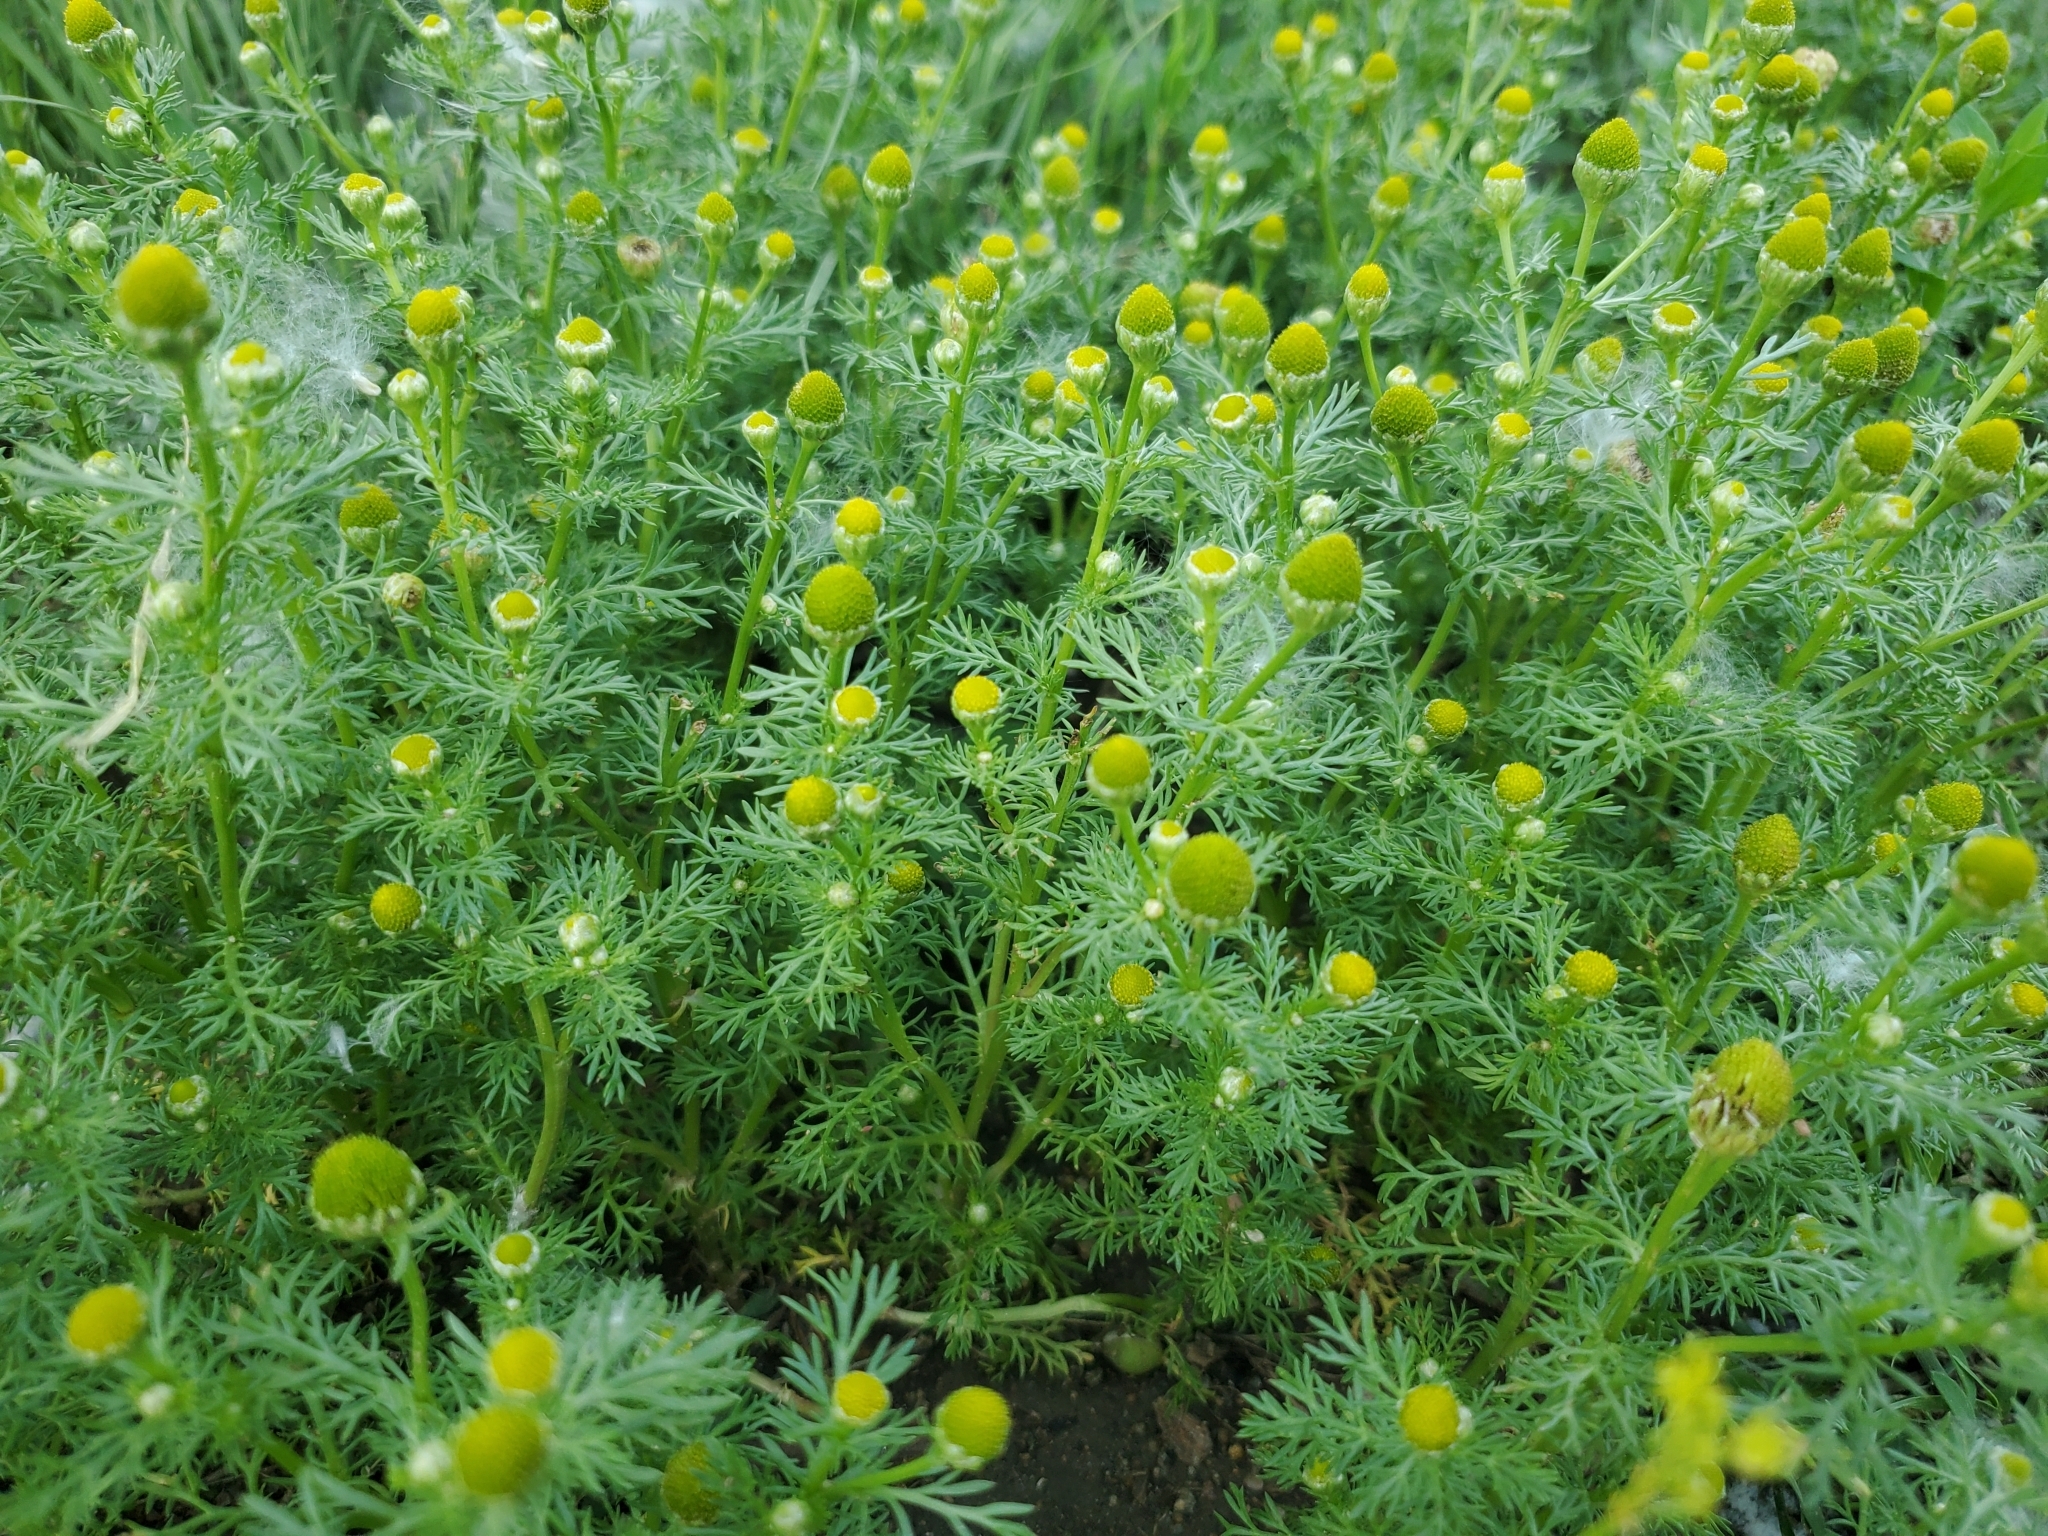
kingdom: Plantae
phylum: Tracheophyta
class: Magnoliopsida
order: Asterales
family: Asteraceae
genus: Matricaria
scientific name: Matricaria discoidea
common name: Disc mayweed
